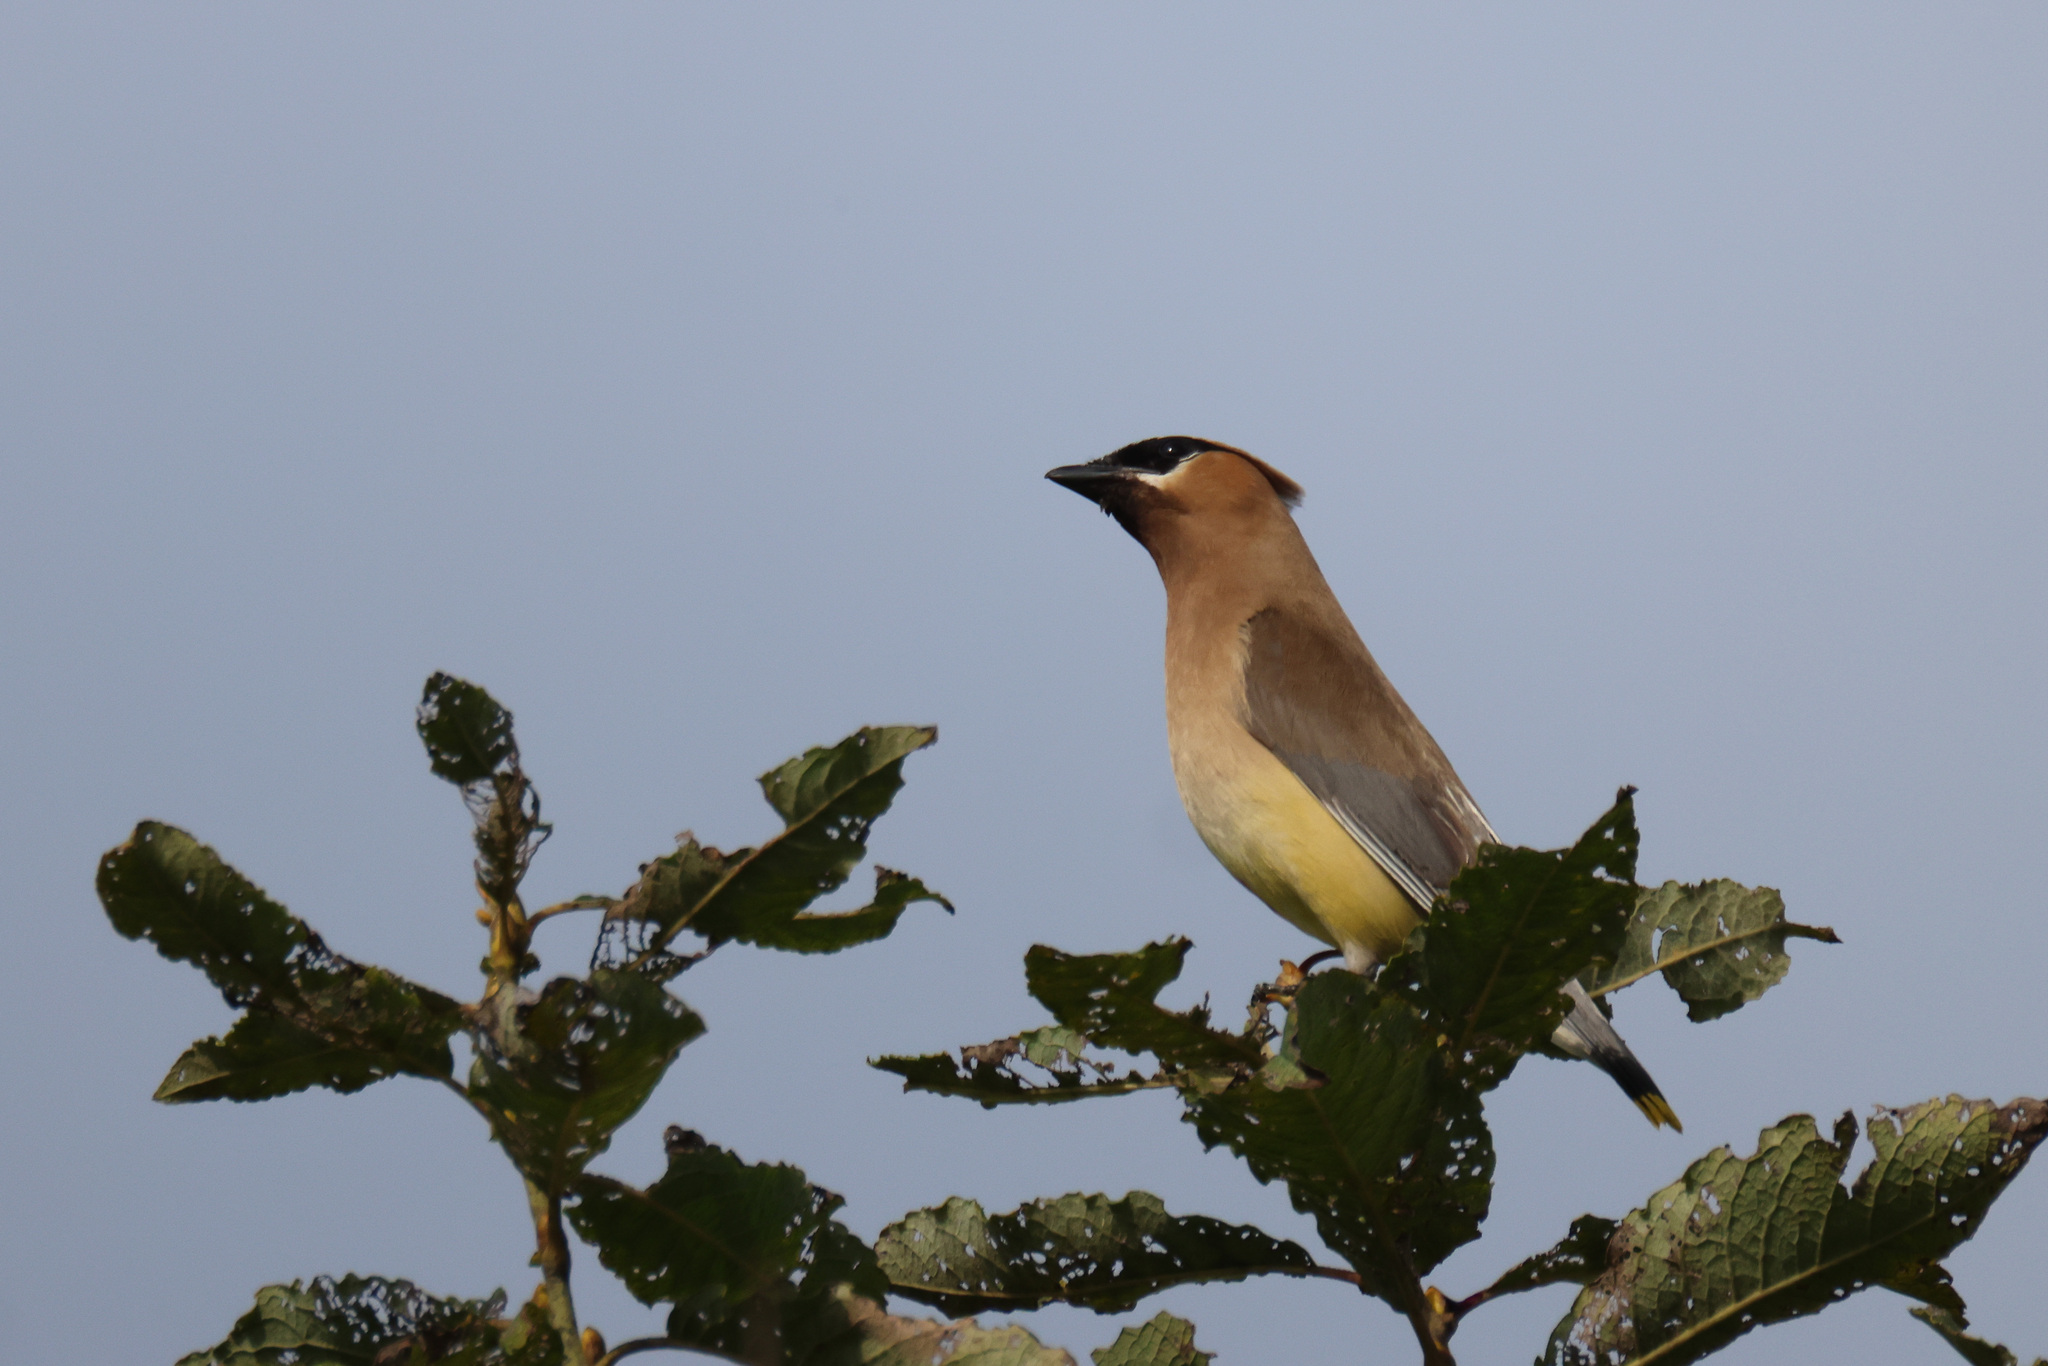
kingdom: Animalia
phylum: Chordata
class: Aves
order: Passeriformes
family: Bombycillidae
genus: Bombycilla
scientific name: Bombycilla cedrorum
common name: Cedar waxwing
